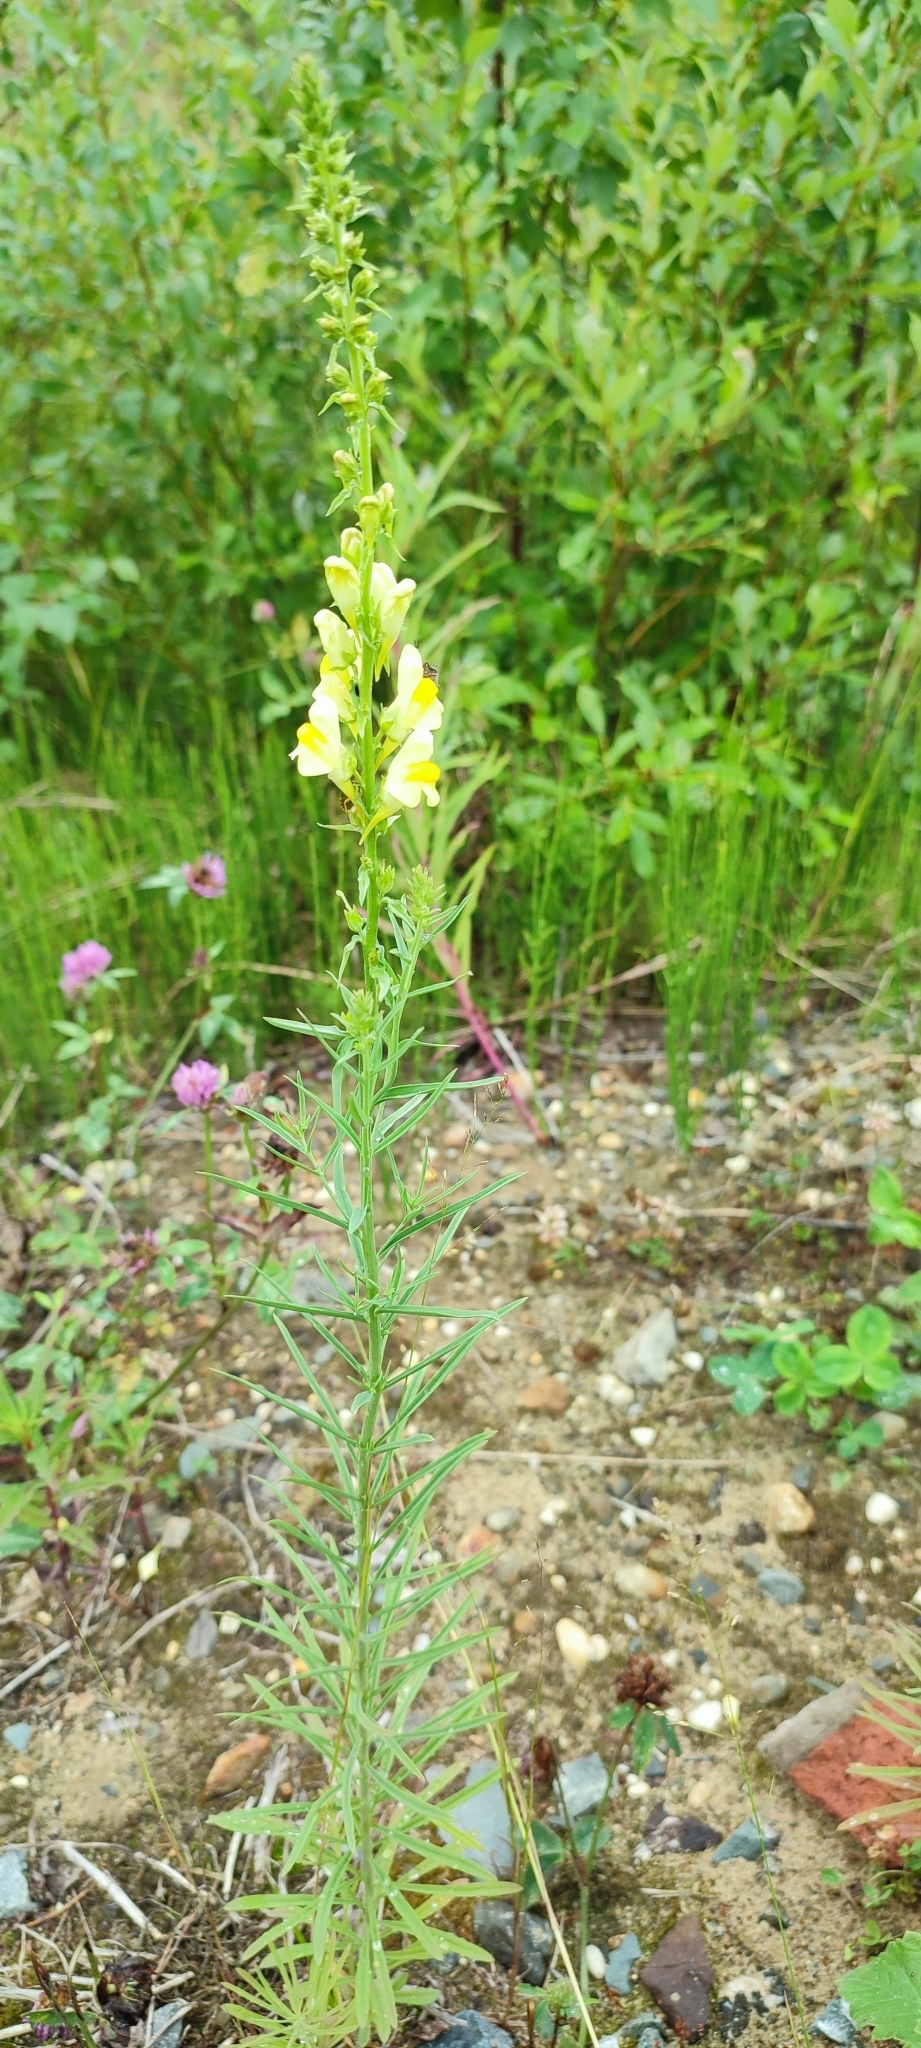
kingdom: Plantae
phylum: Tracheophyta
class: Magnoliopsida
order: Lamiales
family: Plantaginaceae
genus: Linaria
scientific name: Linaria vulgaris
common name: Butter and eggs
